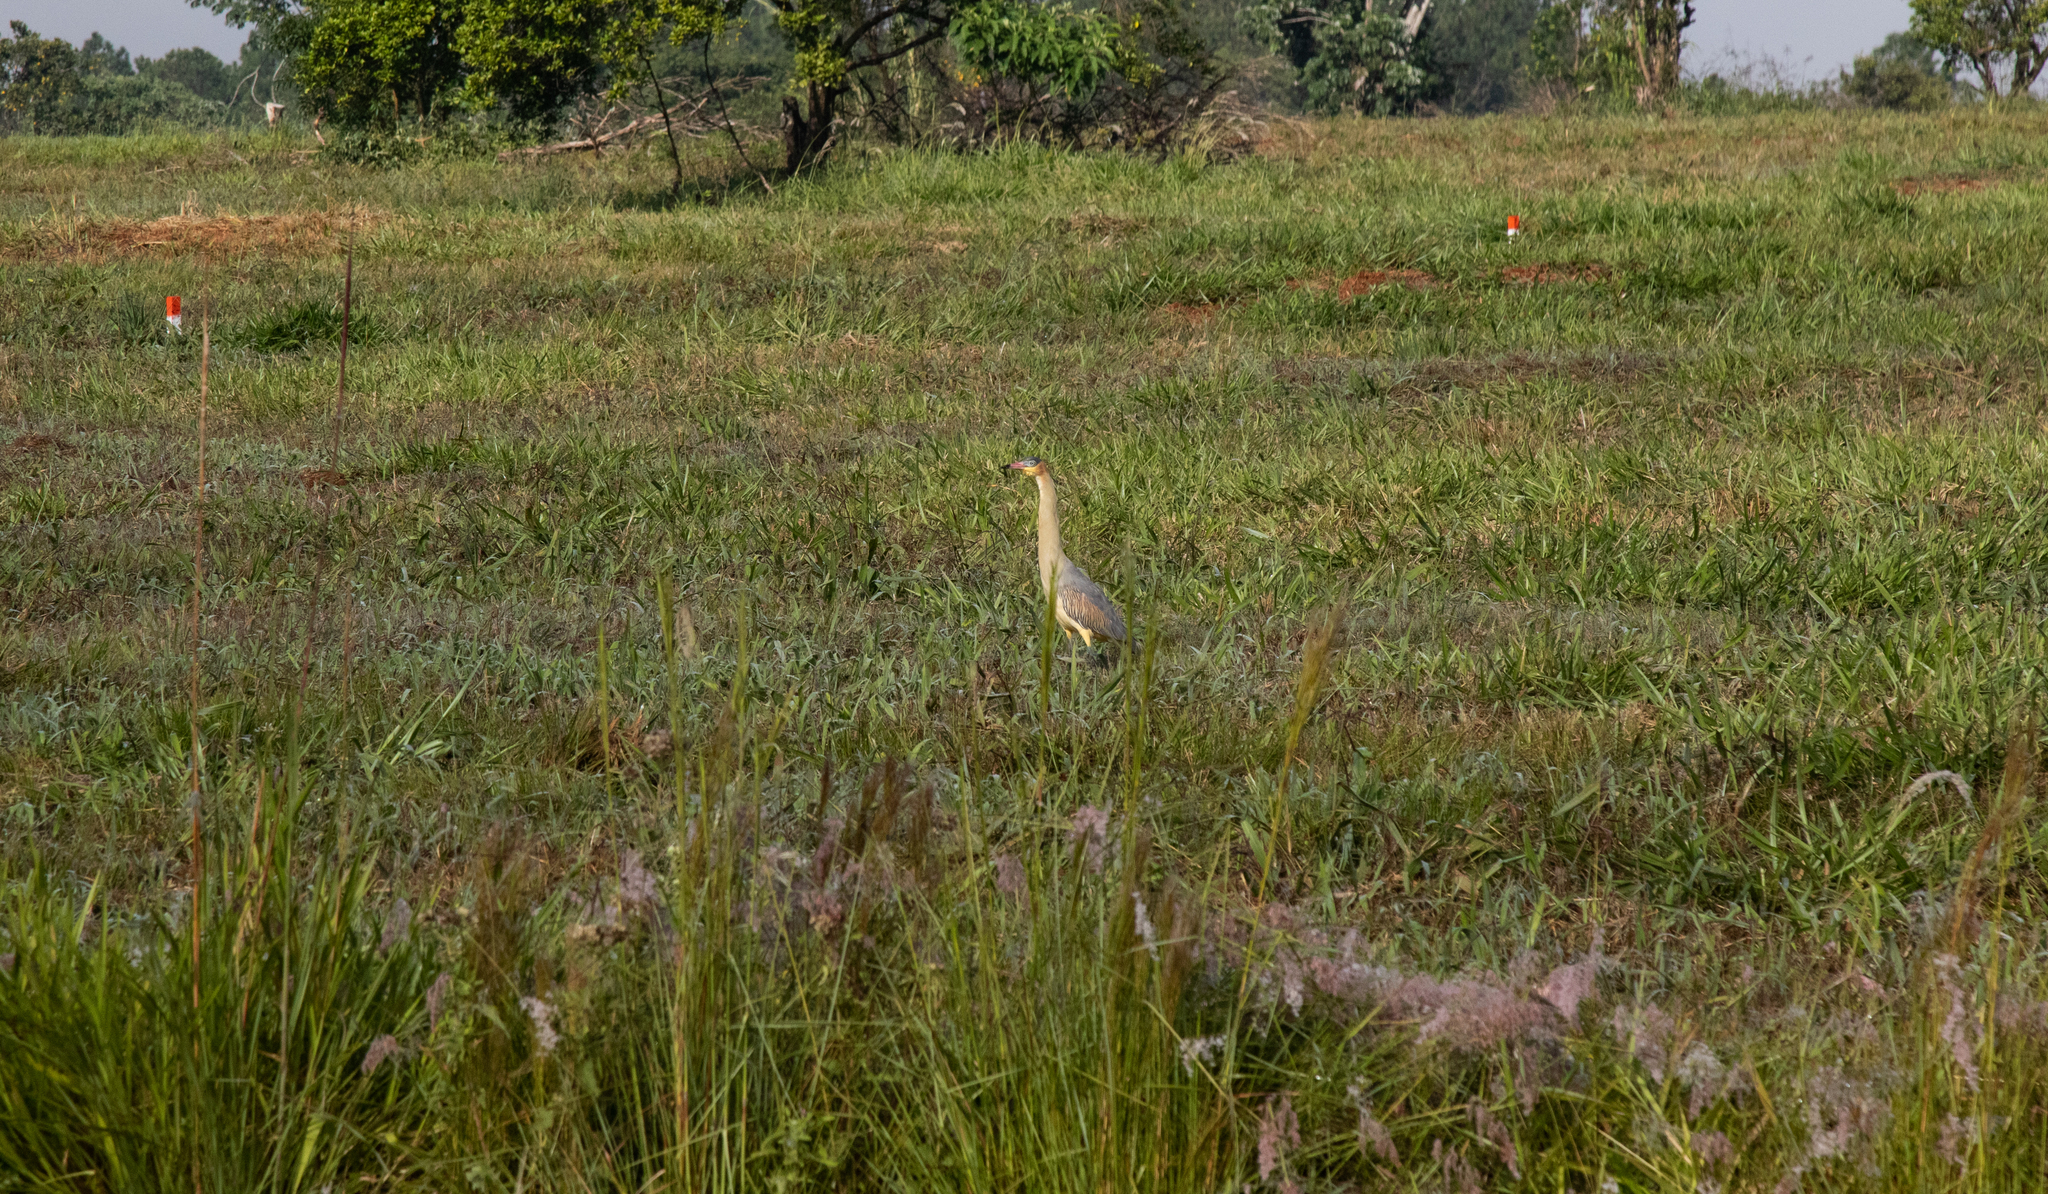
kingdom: Animalia
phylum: Chordata
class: Aves
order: Pelecaniformes
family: Ardeidae
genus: Syrigma
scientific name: Syrigma sibilatrix
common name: Whistling heron
